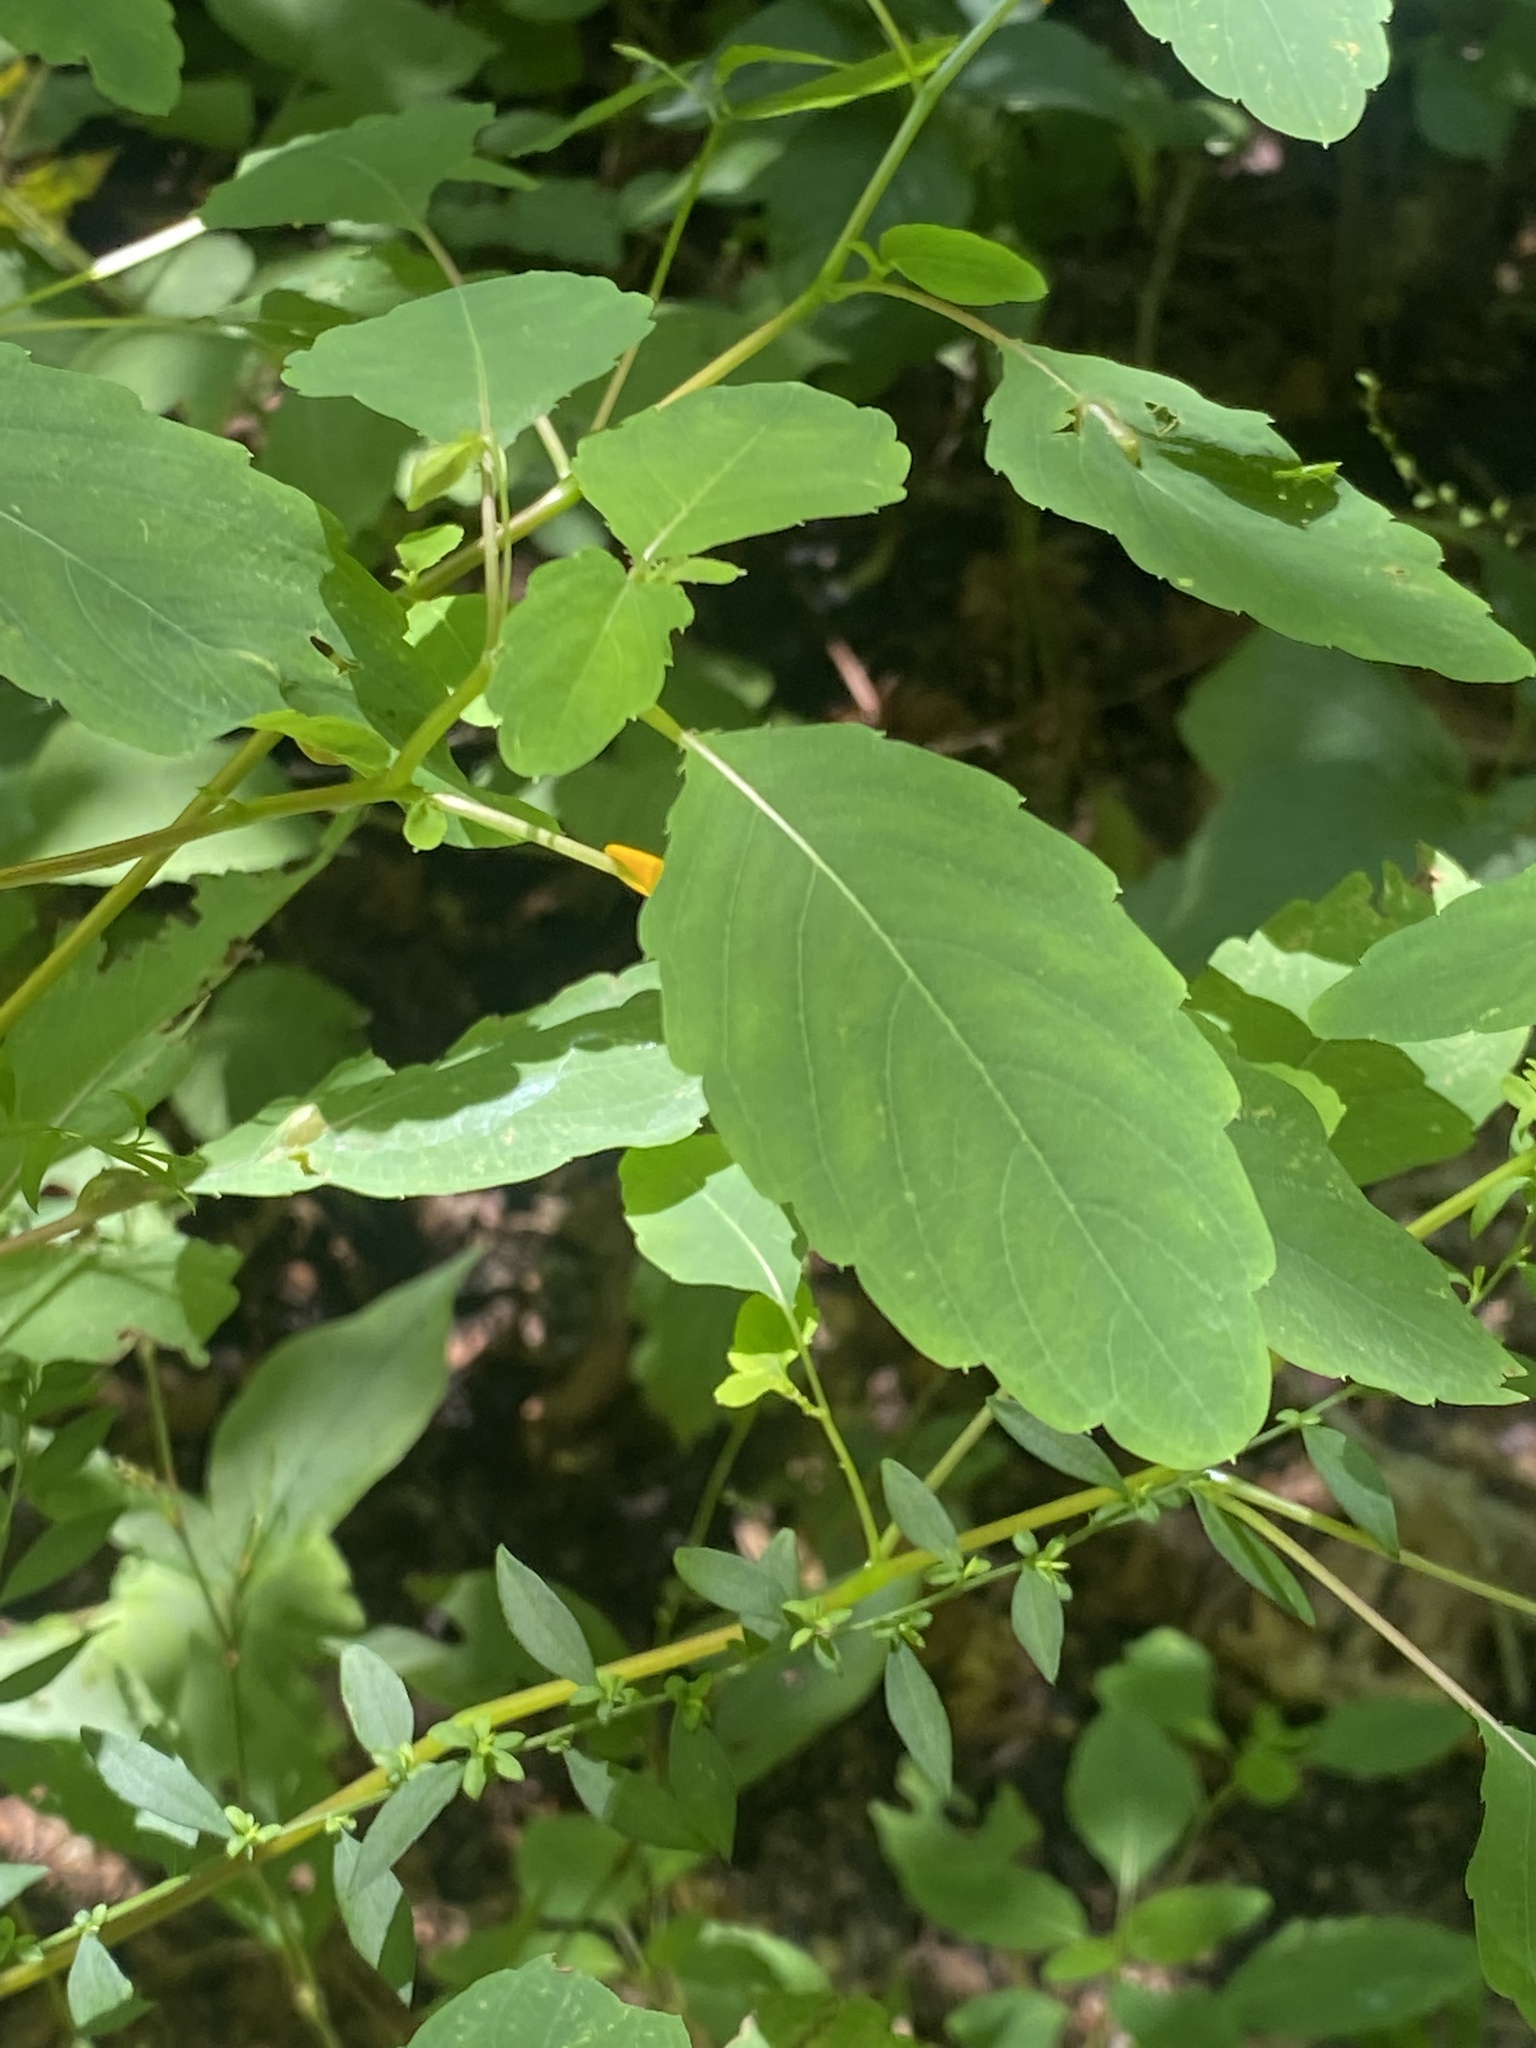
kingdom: Plantae
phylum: Tracheophyta
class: Magnoliopsida
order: Ericales
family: Balsaminaceae
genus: Impatiens
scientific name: Impatiens capensis
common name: Orange balsam
